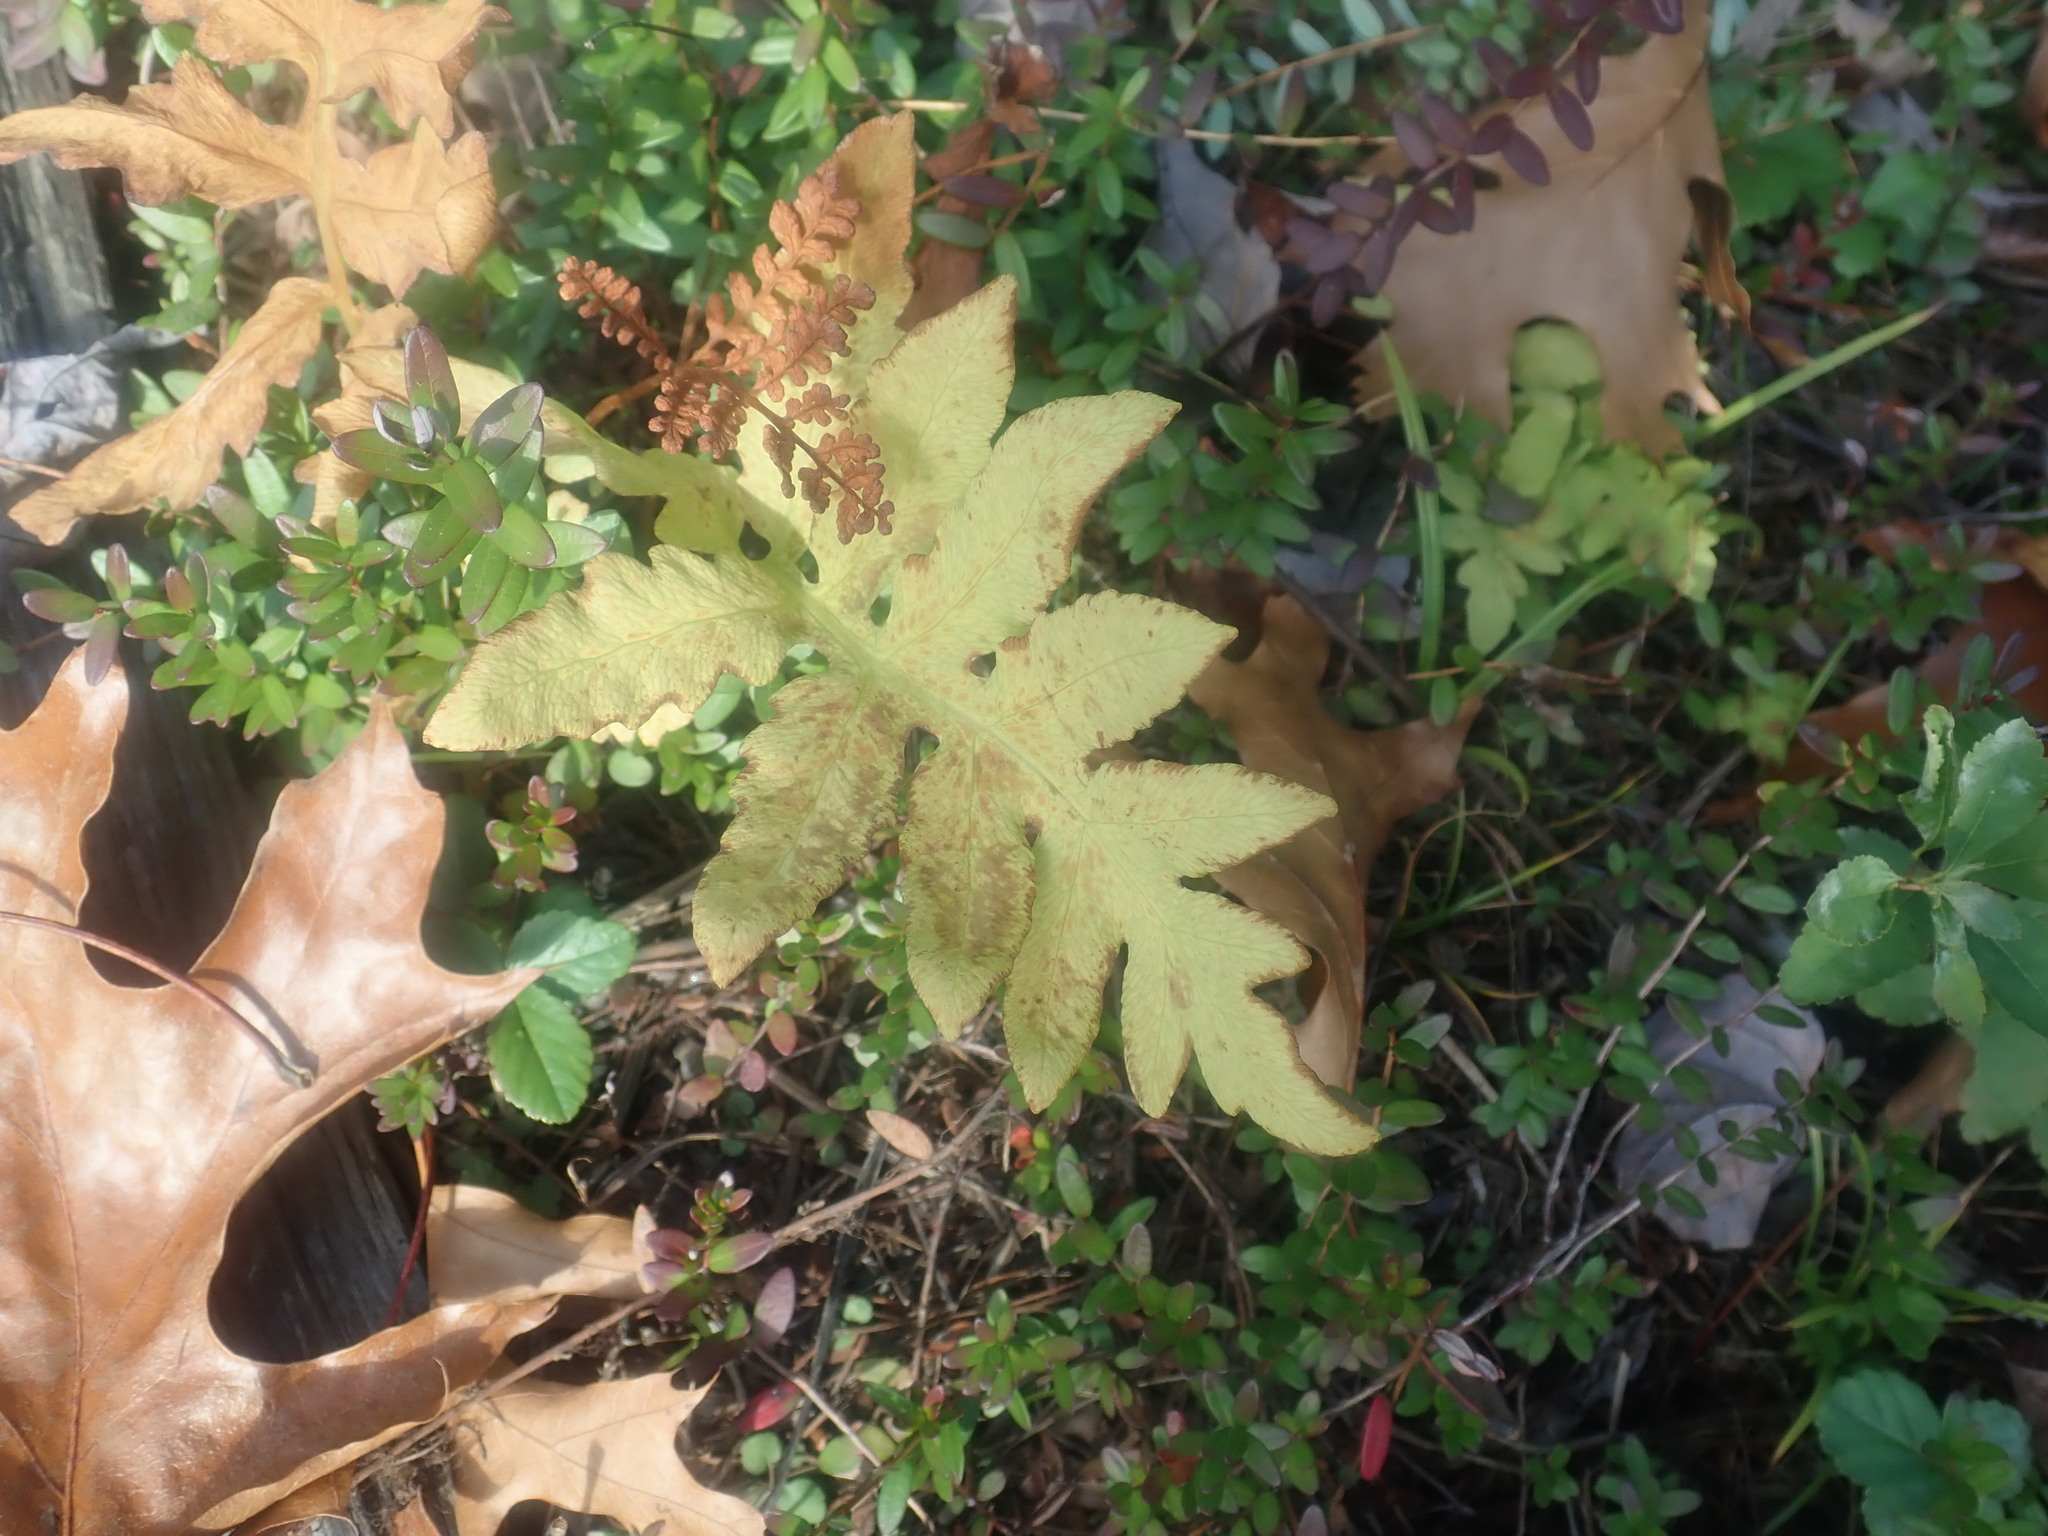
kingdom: Plantae
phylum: Tracheophyta
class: Polypodiopsida
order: Polypodiales
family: Onocleaceae
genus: Onoclea
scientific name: Onoclea sensibilis
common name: Sensitive fern
